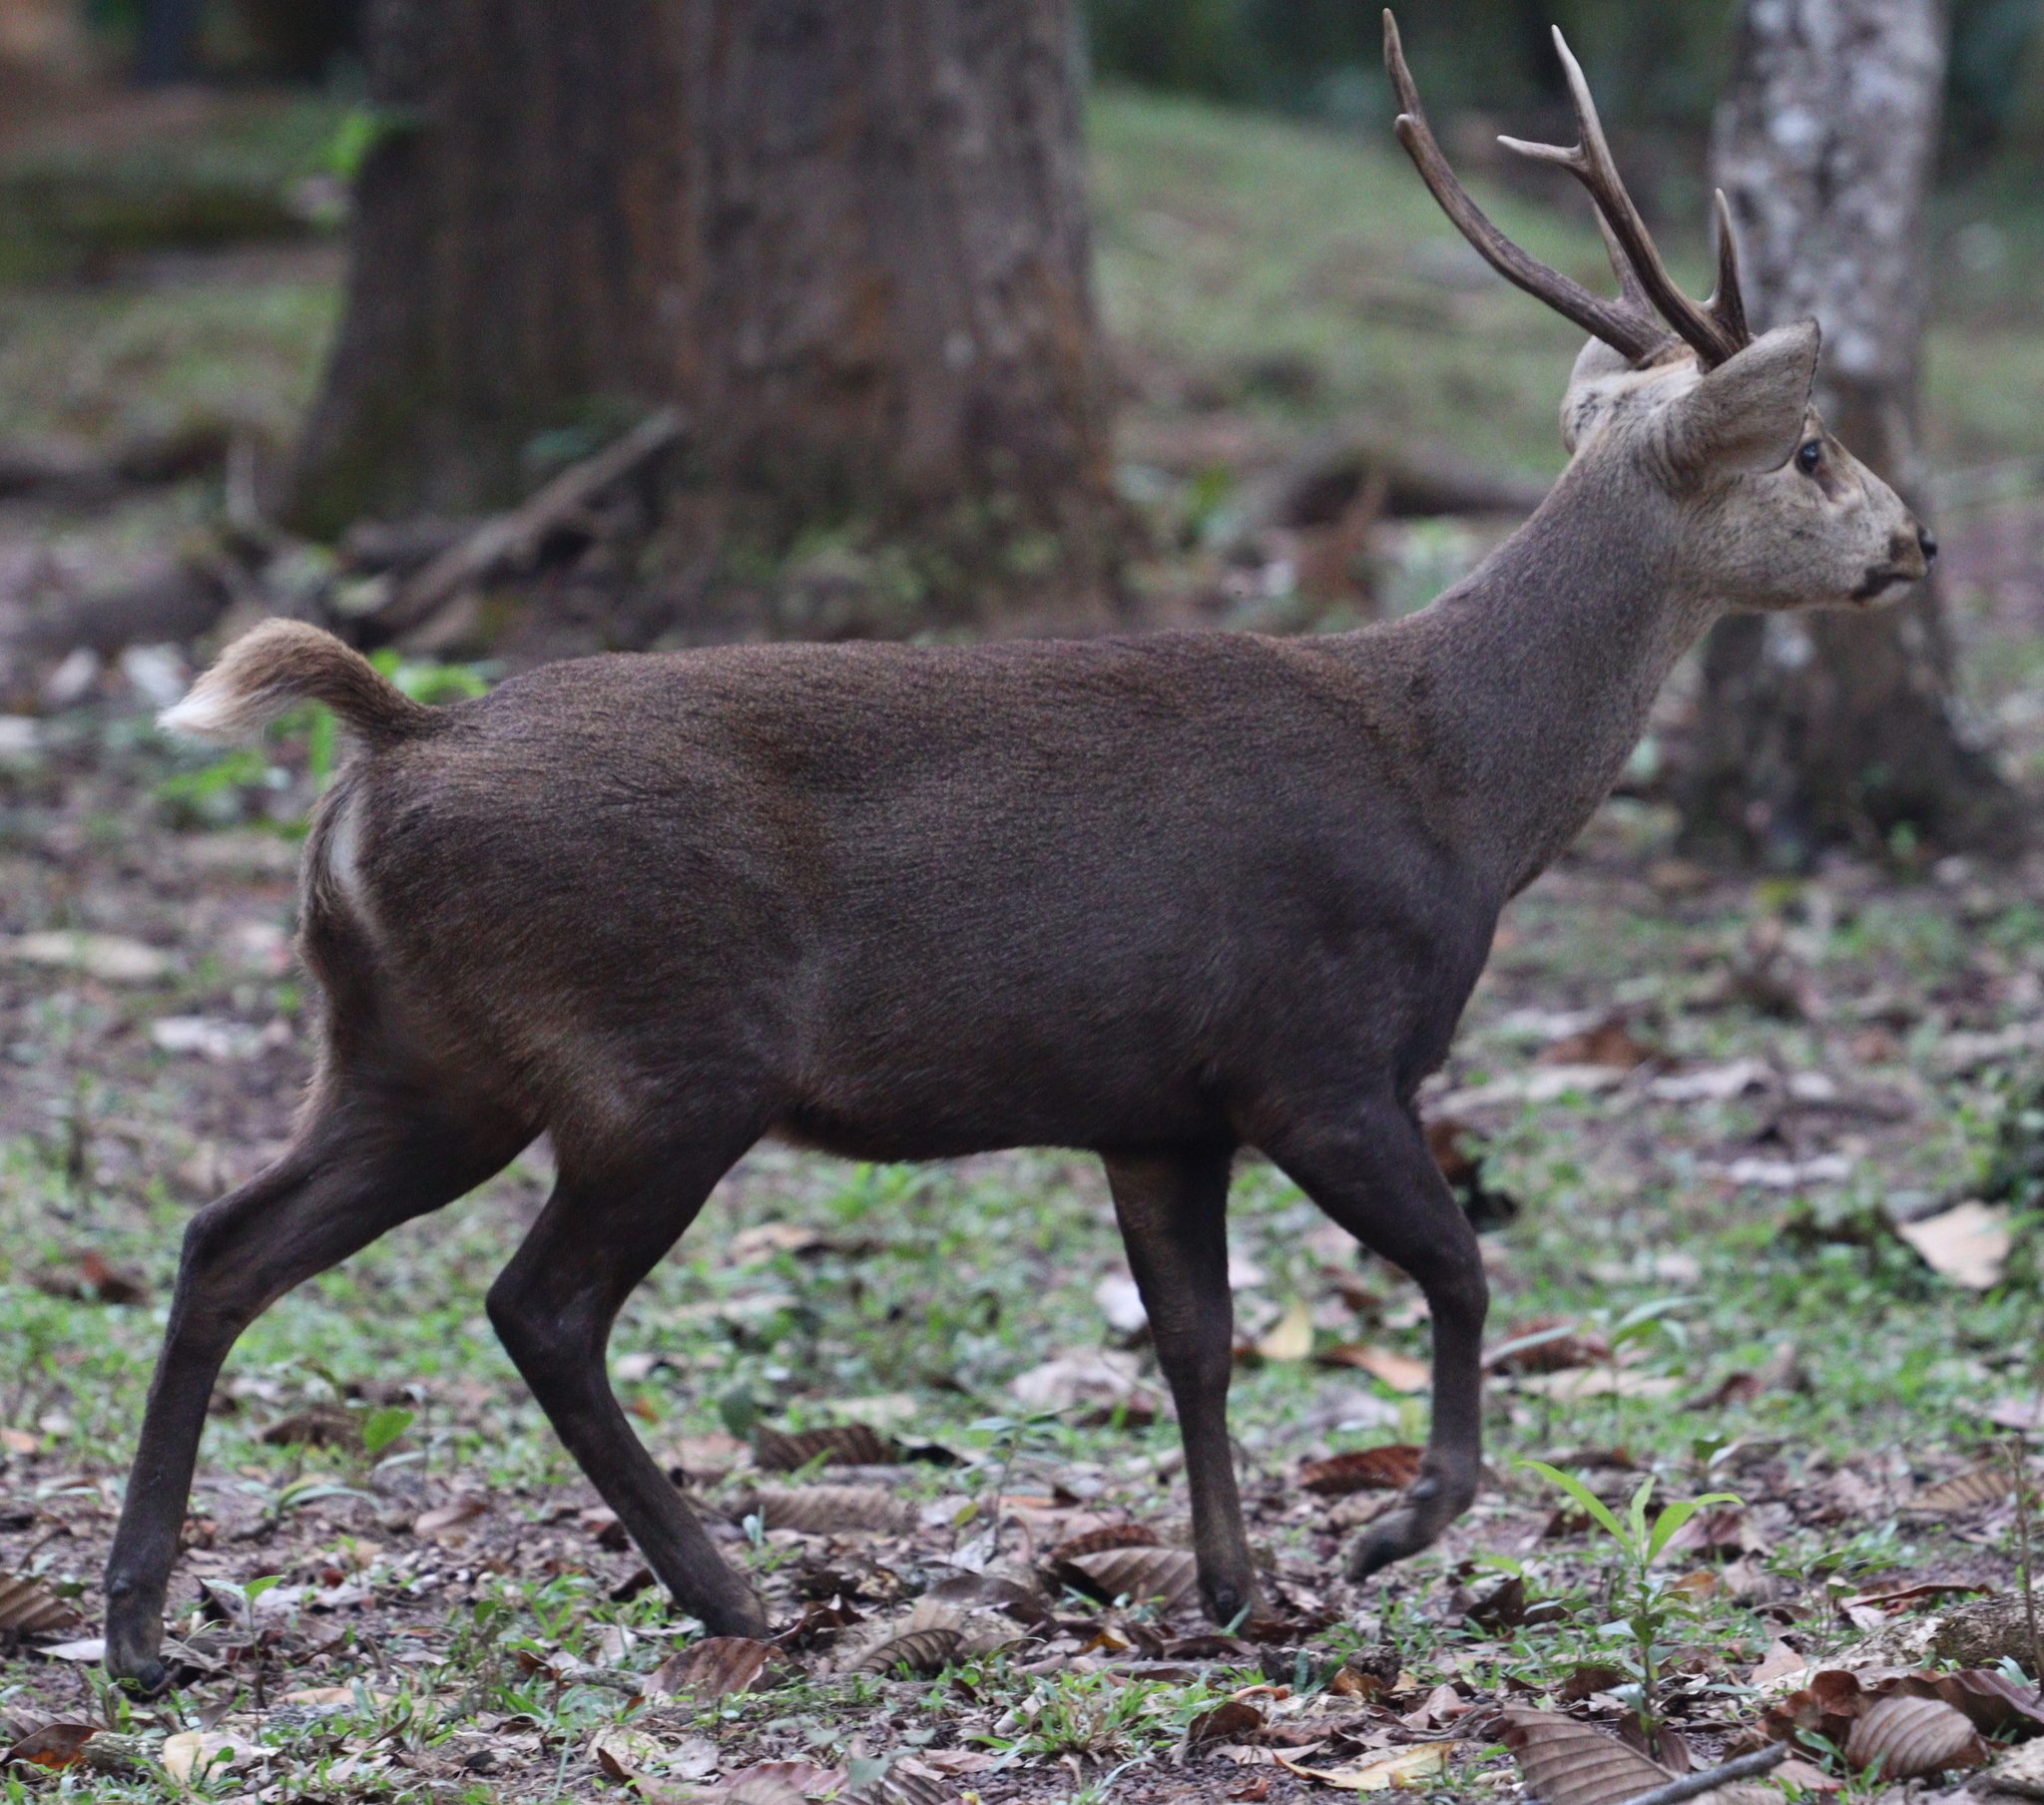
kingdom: Animalia
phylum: Chordata
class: Mammalia
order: Artiodactyla
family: Cervidae
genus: Axis
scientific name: Axis porcinus
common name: Hog deer
